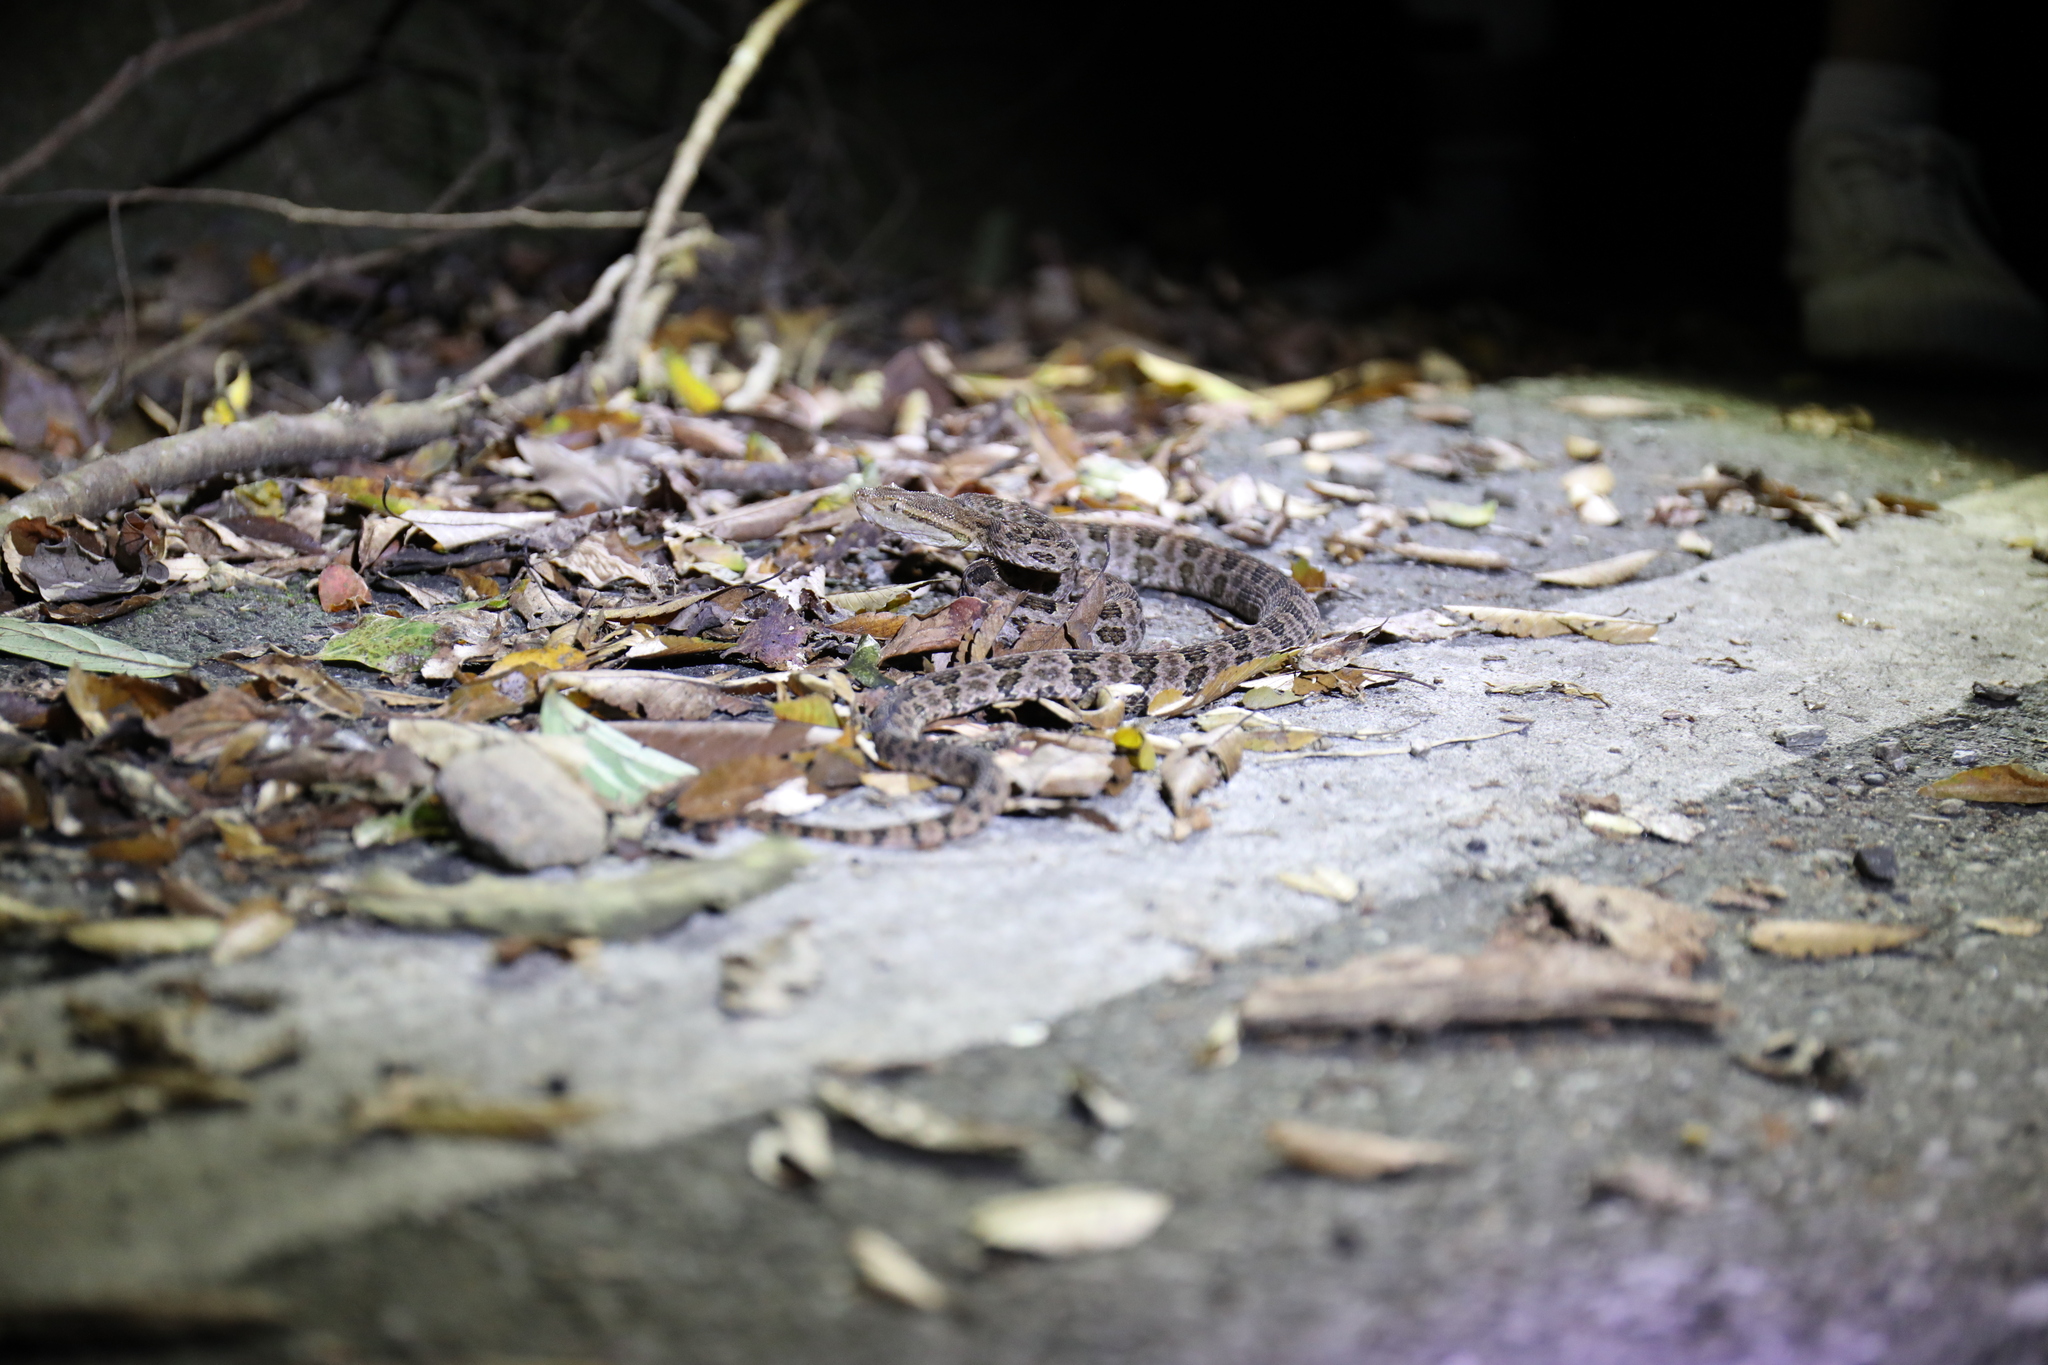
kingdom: Animalia
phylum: Chordata
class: Squamata
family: Viperidae
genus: Protobothrops
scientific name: Protobothrops mucrosquamatus
